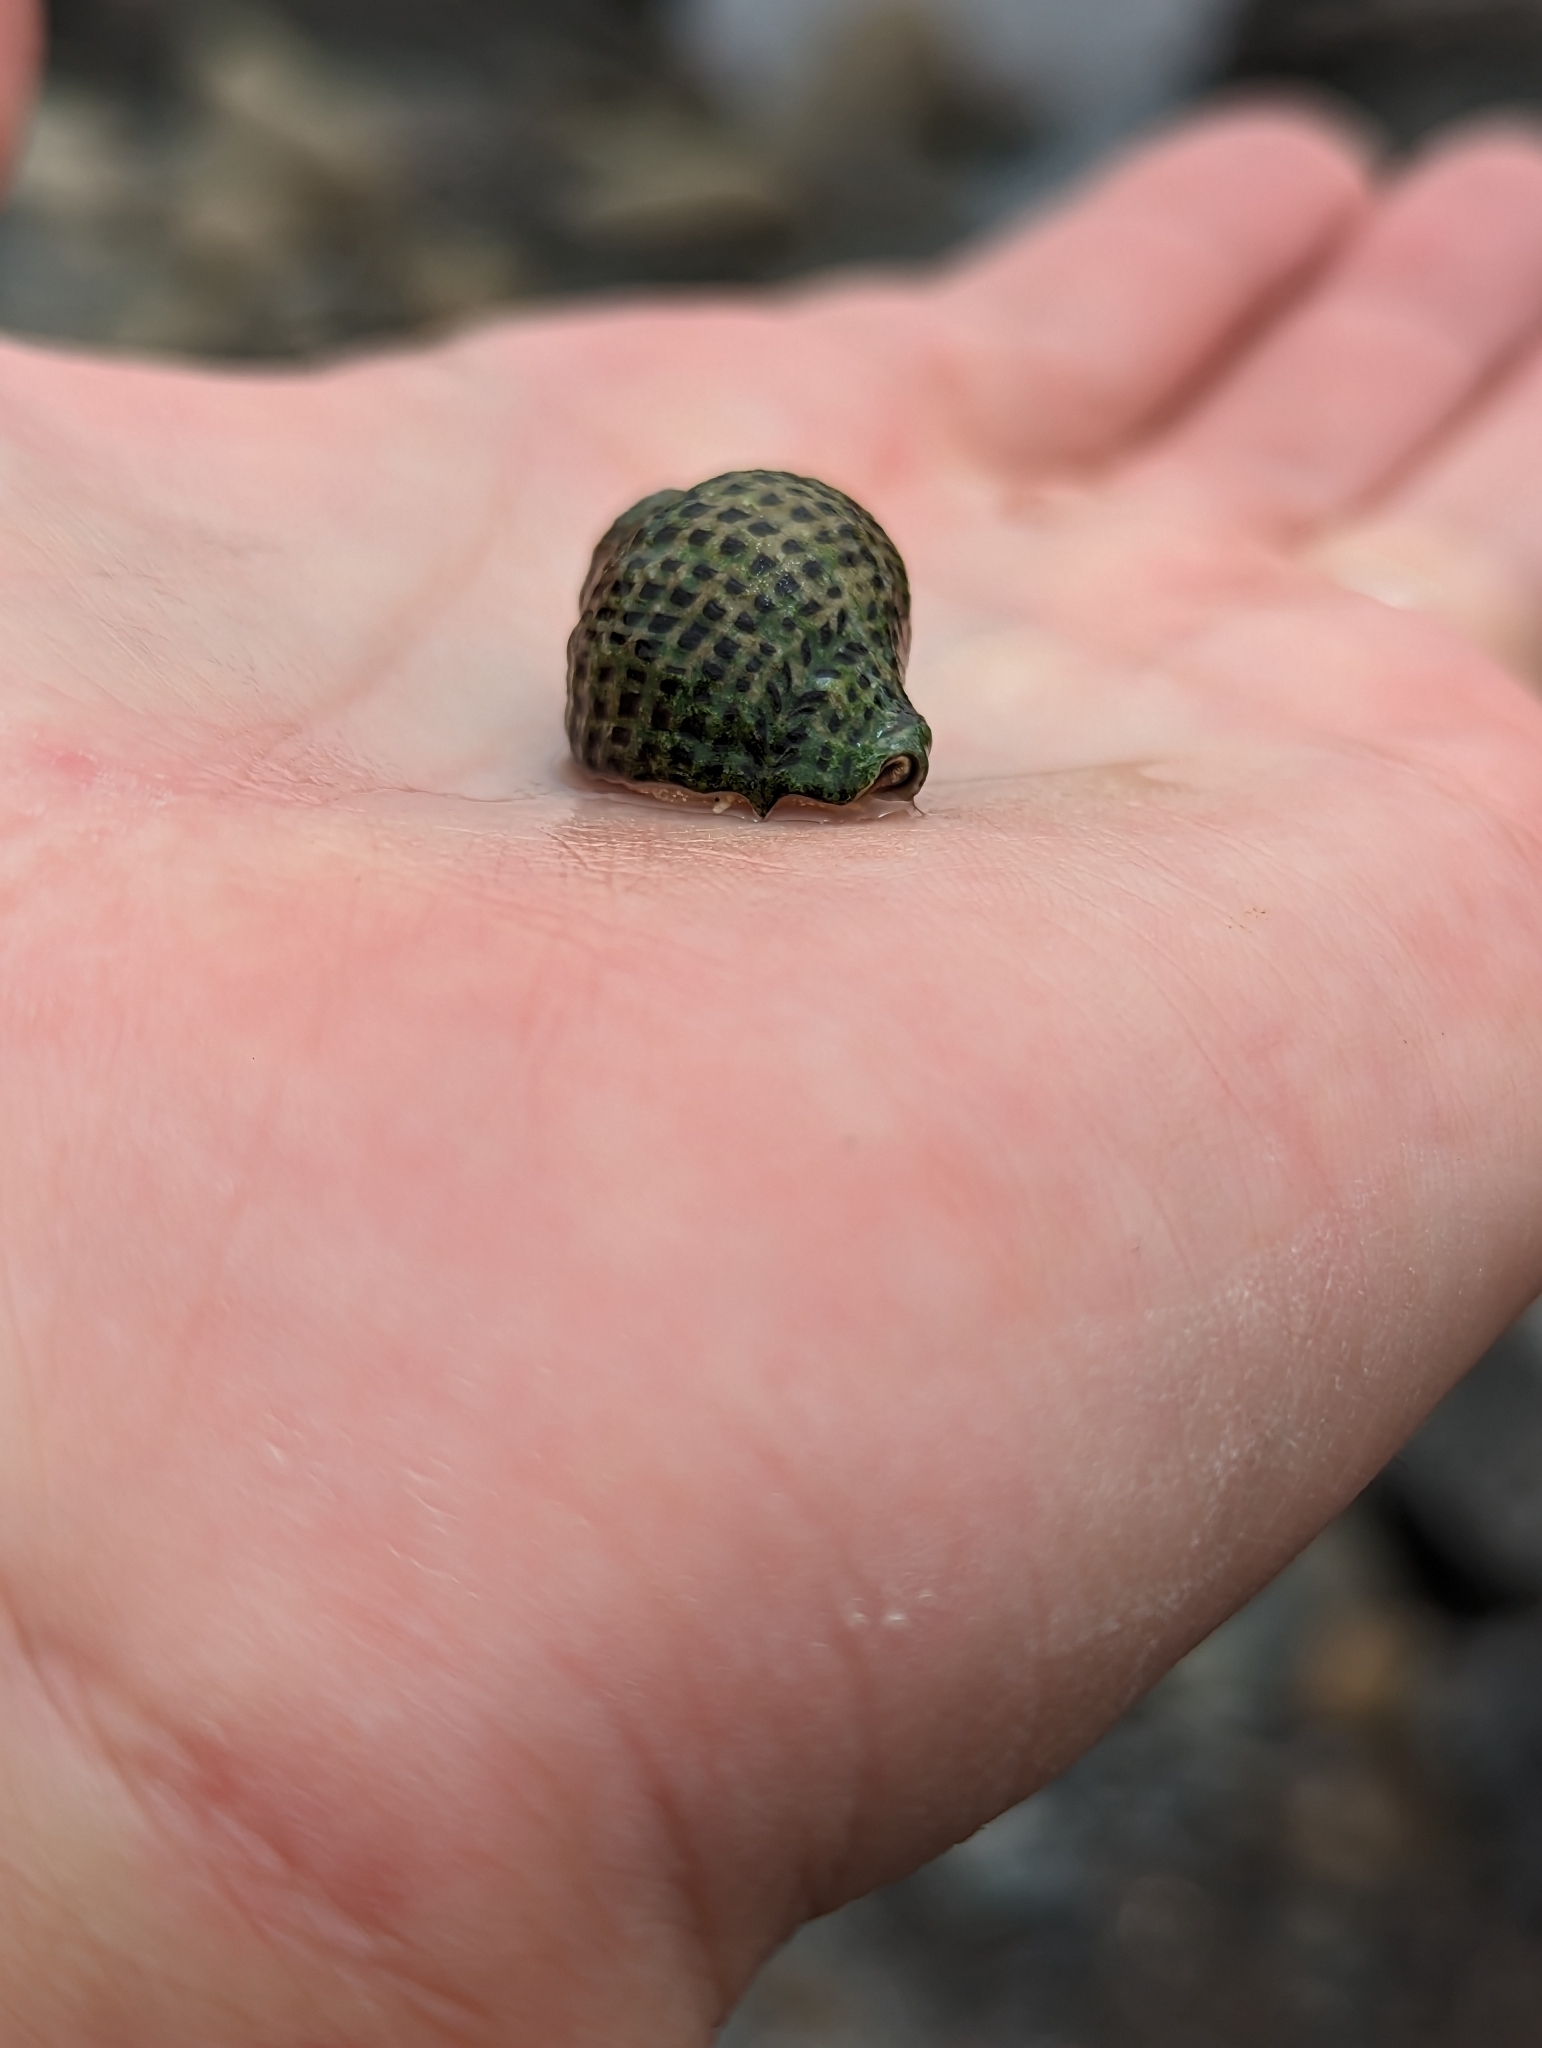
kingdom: Animalia
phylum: Mollusca
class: Gastropoda
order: Neogastropoda
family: Muricidae
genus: Acanthinucella
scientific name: Acanthinucella punctulata
